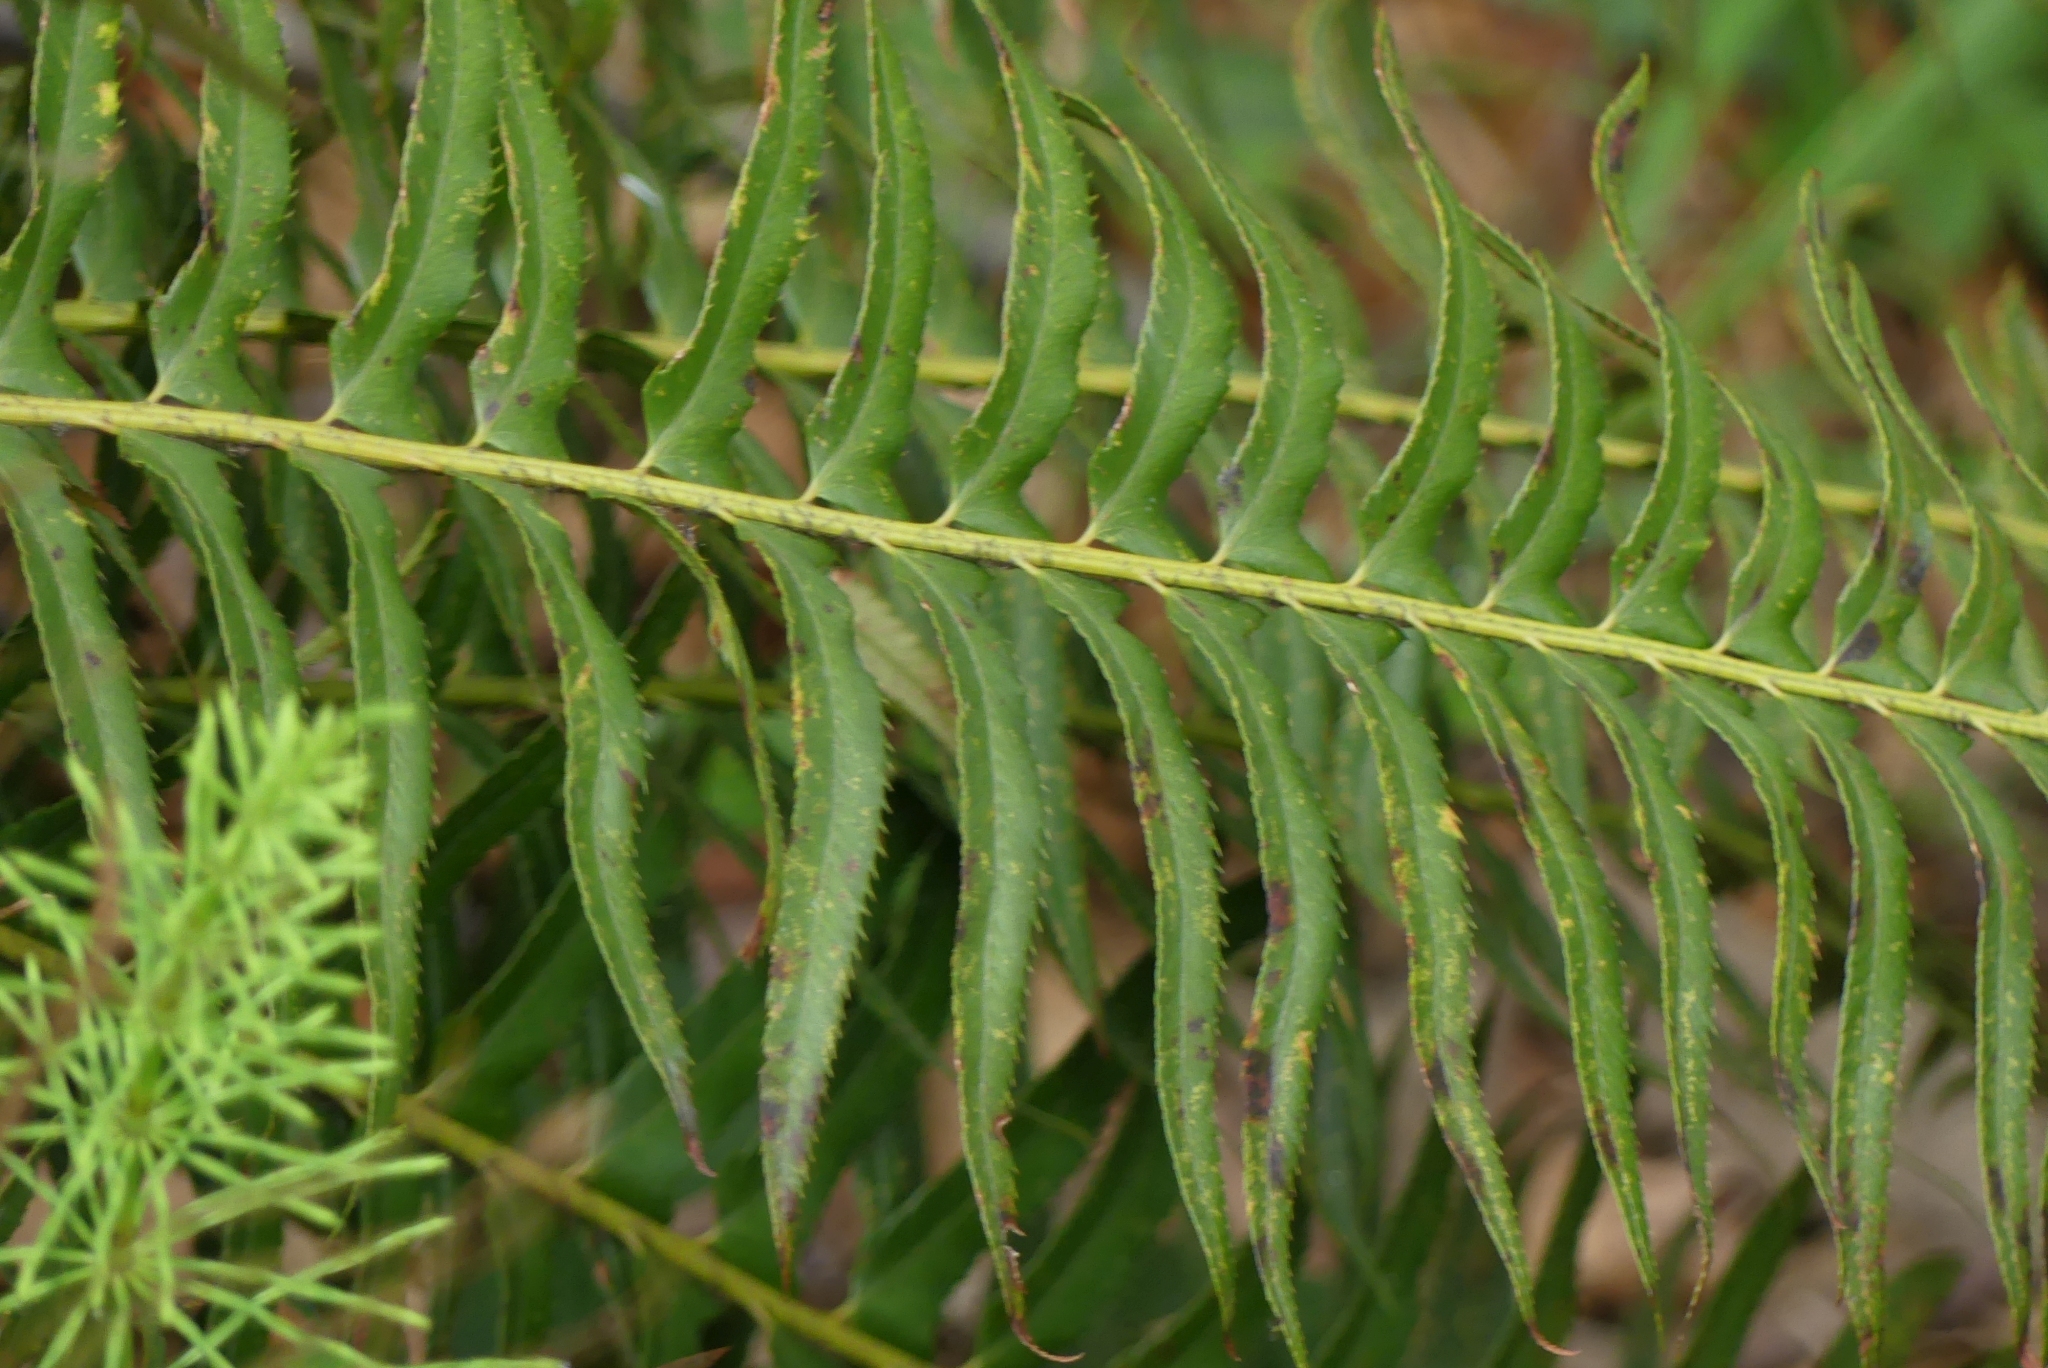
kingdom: Plantae
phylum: Tracheophyta
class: Polypodiopsida
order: Polypodiales
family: Dryopteridaceae
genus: Polystichum
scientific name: Polystichum munitum
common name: Western sword-fern
